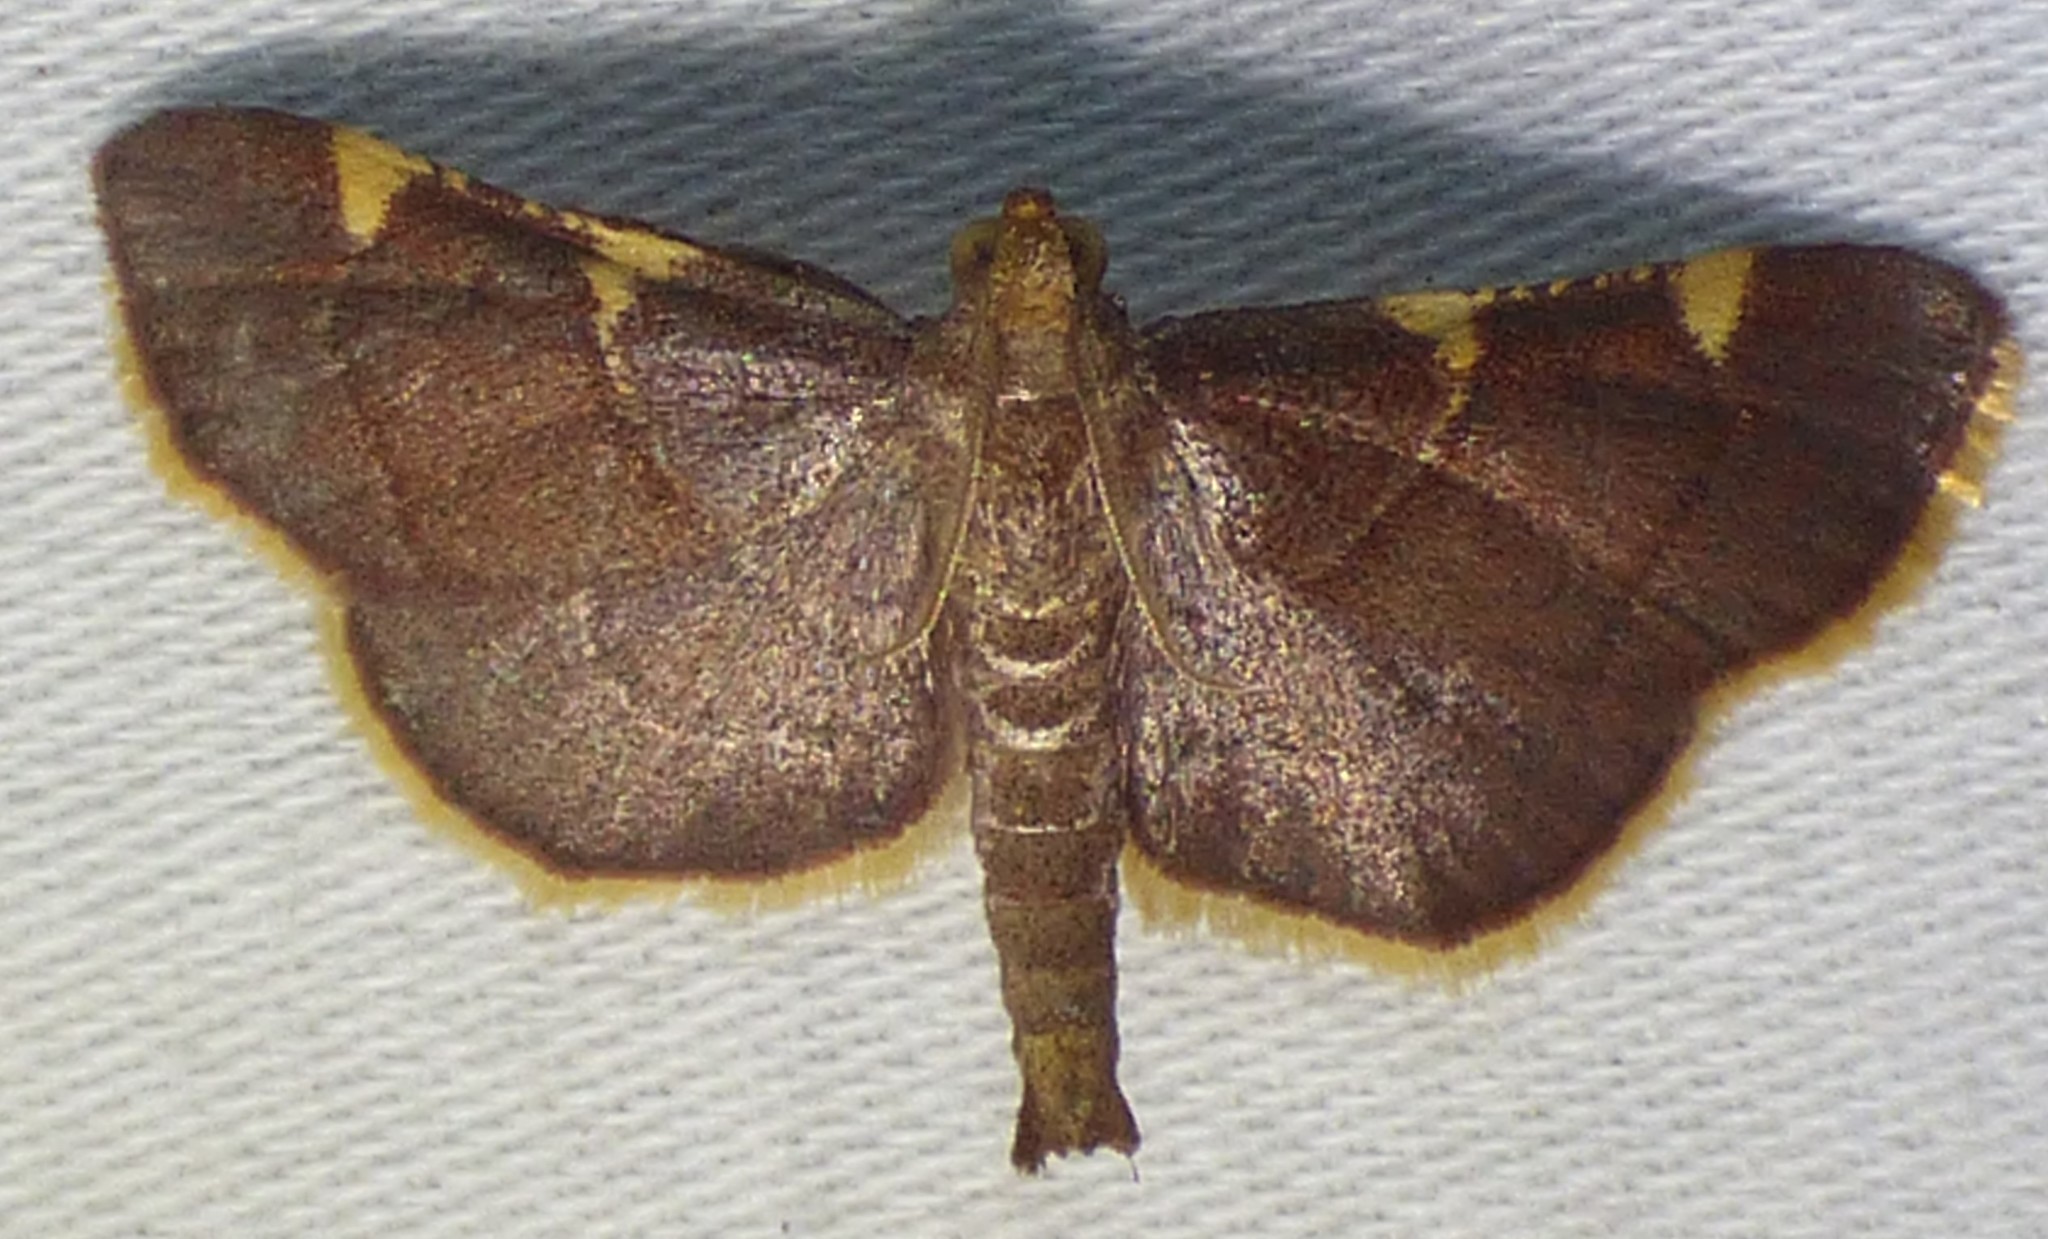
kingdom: Animalia
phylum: Arthropoda
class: Insecta
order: Lepidoptera
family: Pyralidae
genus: Hypsopygia
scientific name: Hypsopygia olinalis
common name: Yellow-fringed dolichomia moth
